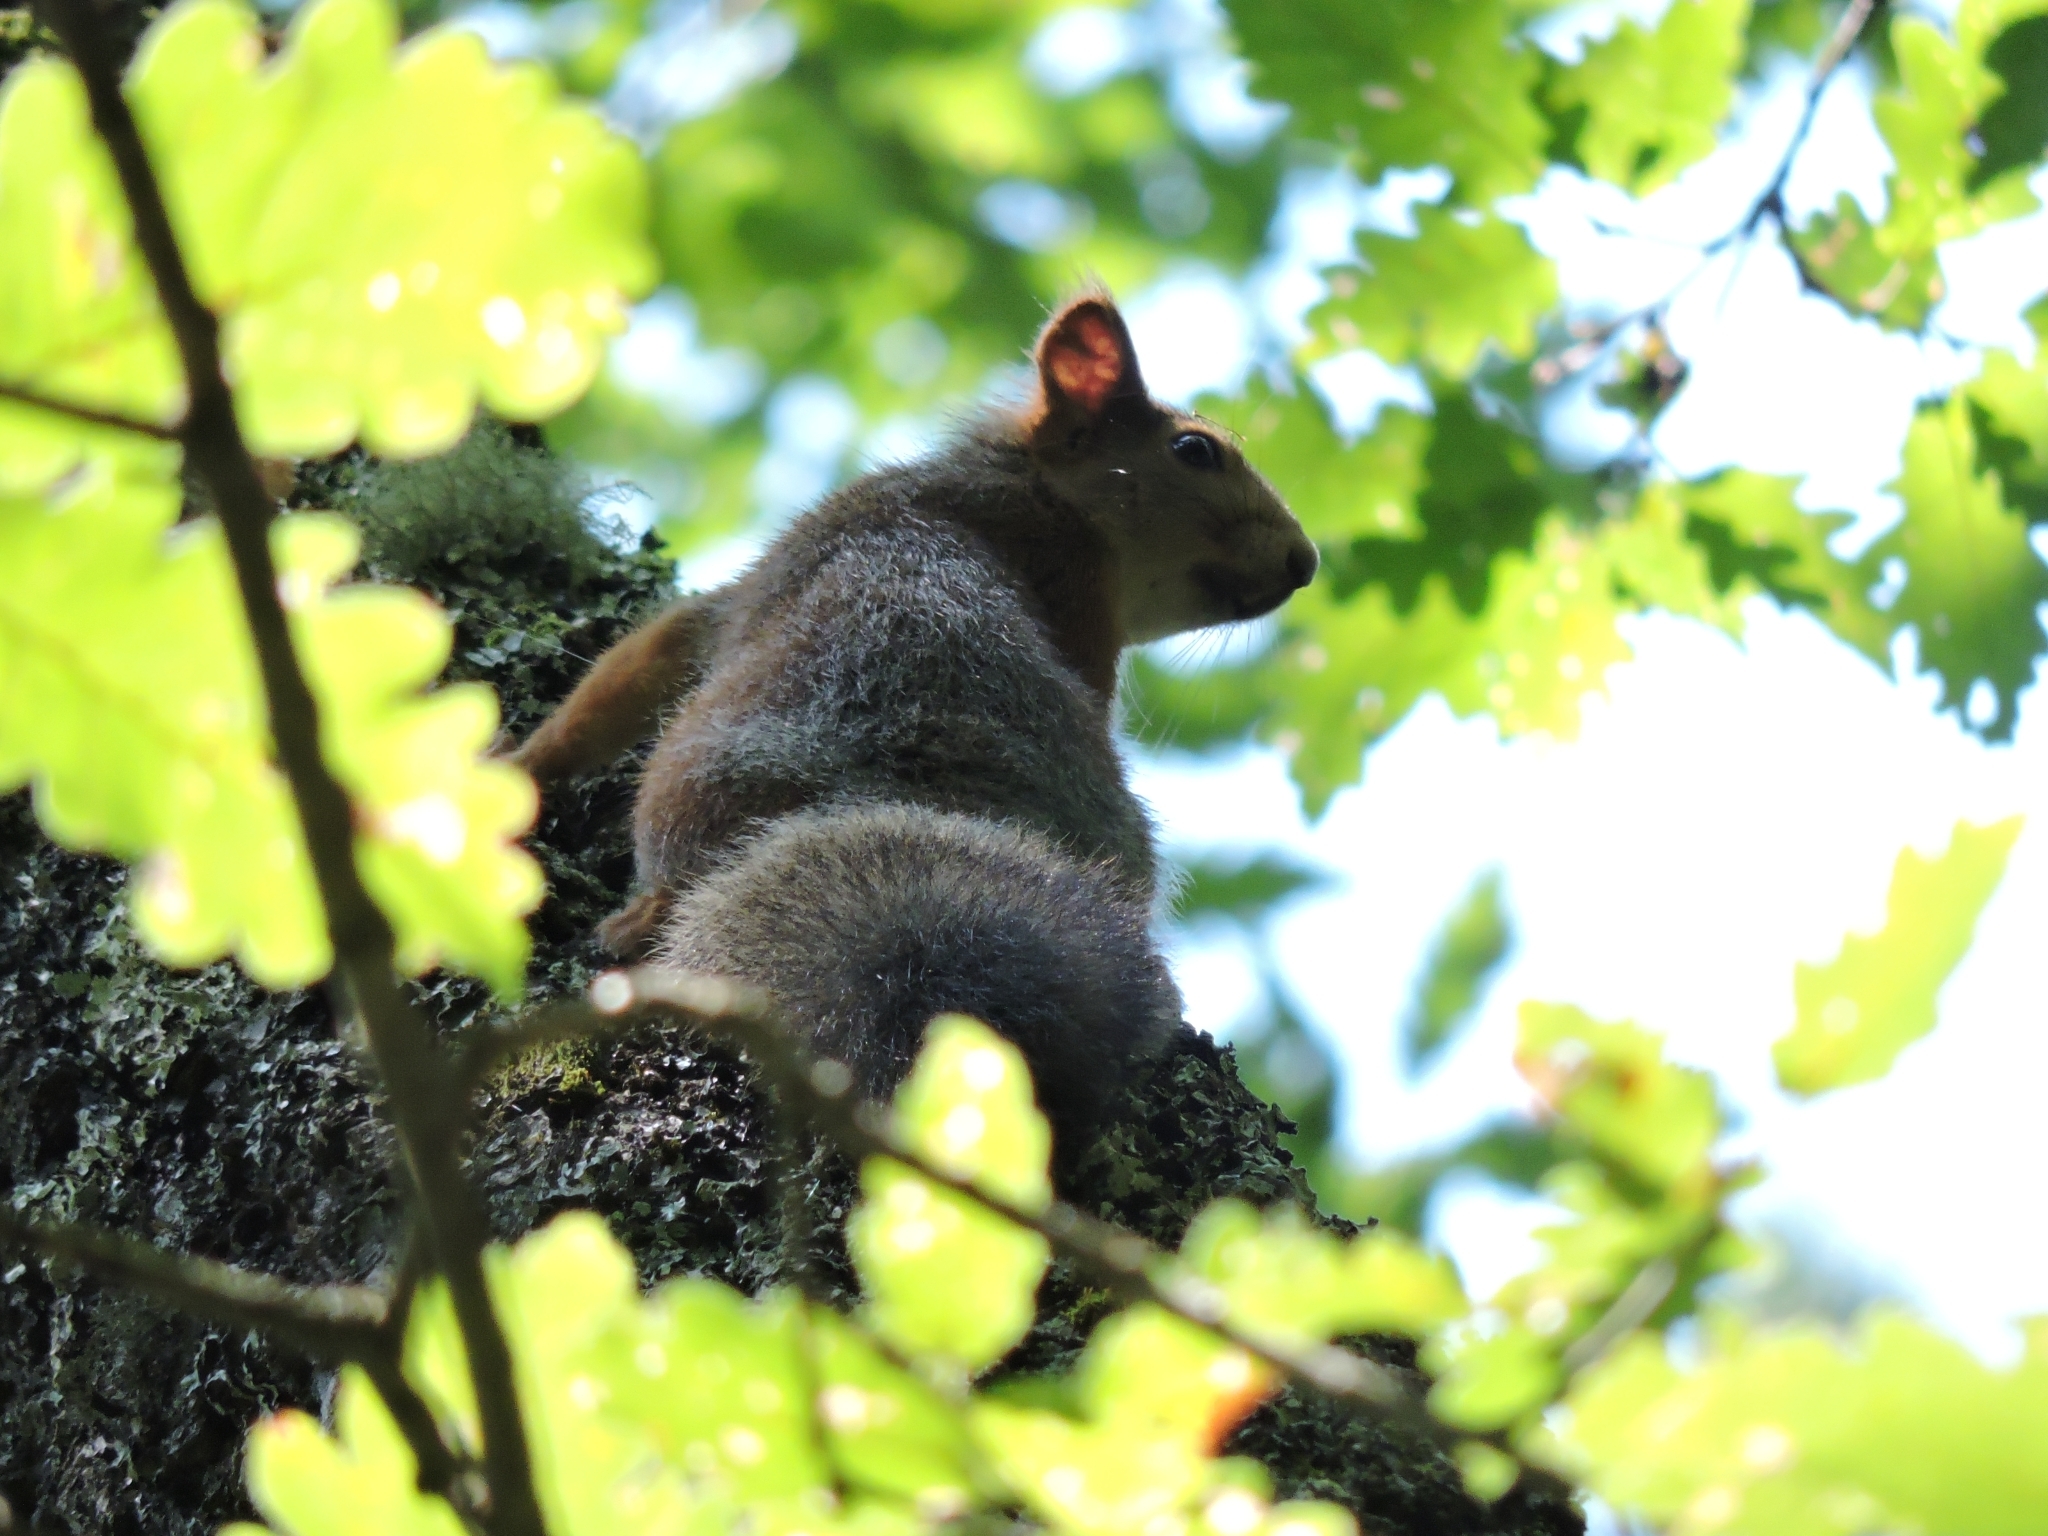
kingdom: Animalia
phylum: Chordata
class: Mammalia
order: Rodentia
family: Sciuridae
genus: Sciurus
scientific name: Sciurus anomalus
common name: Caucasian squirrel
